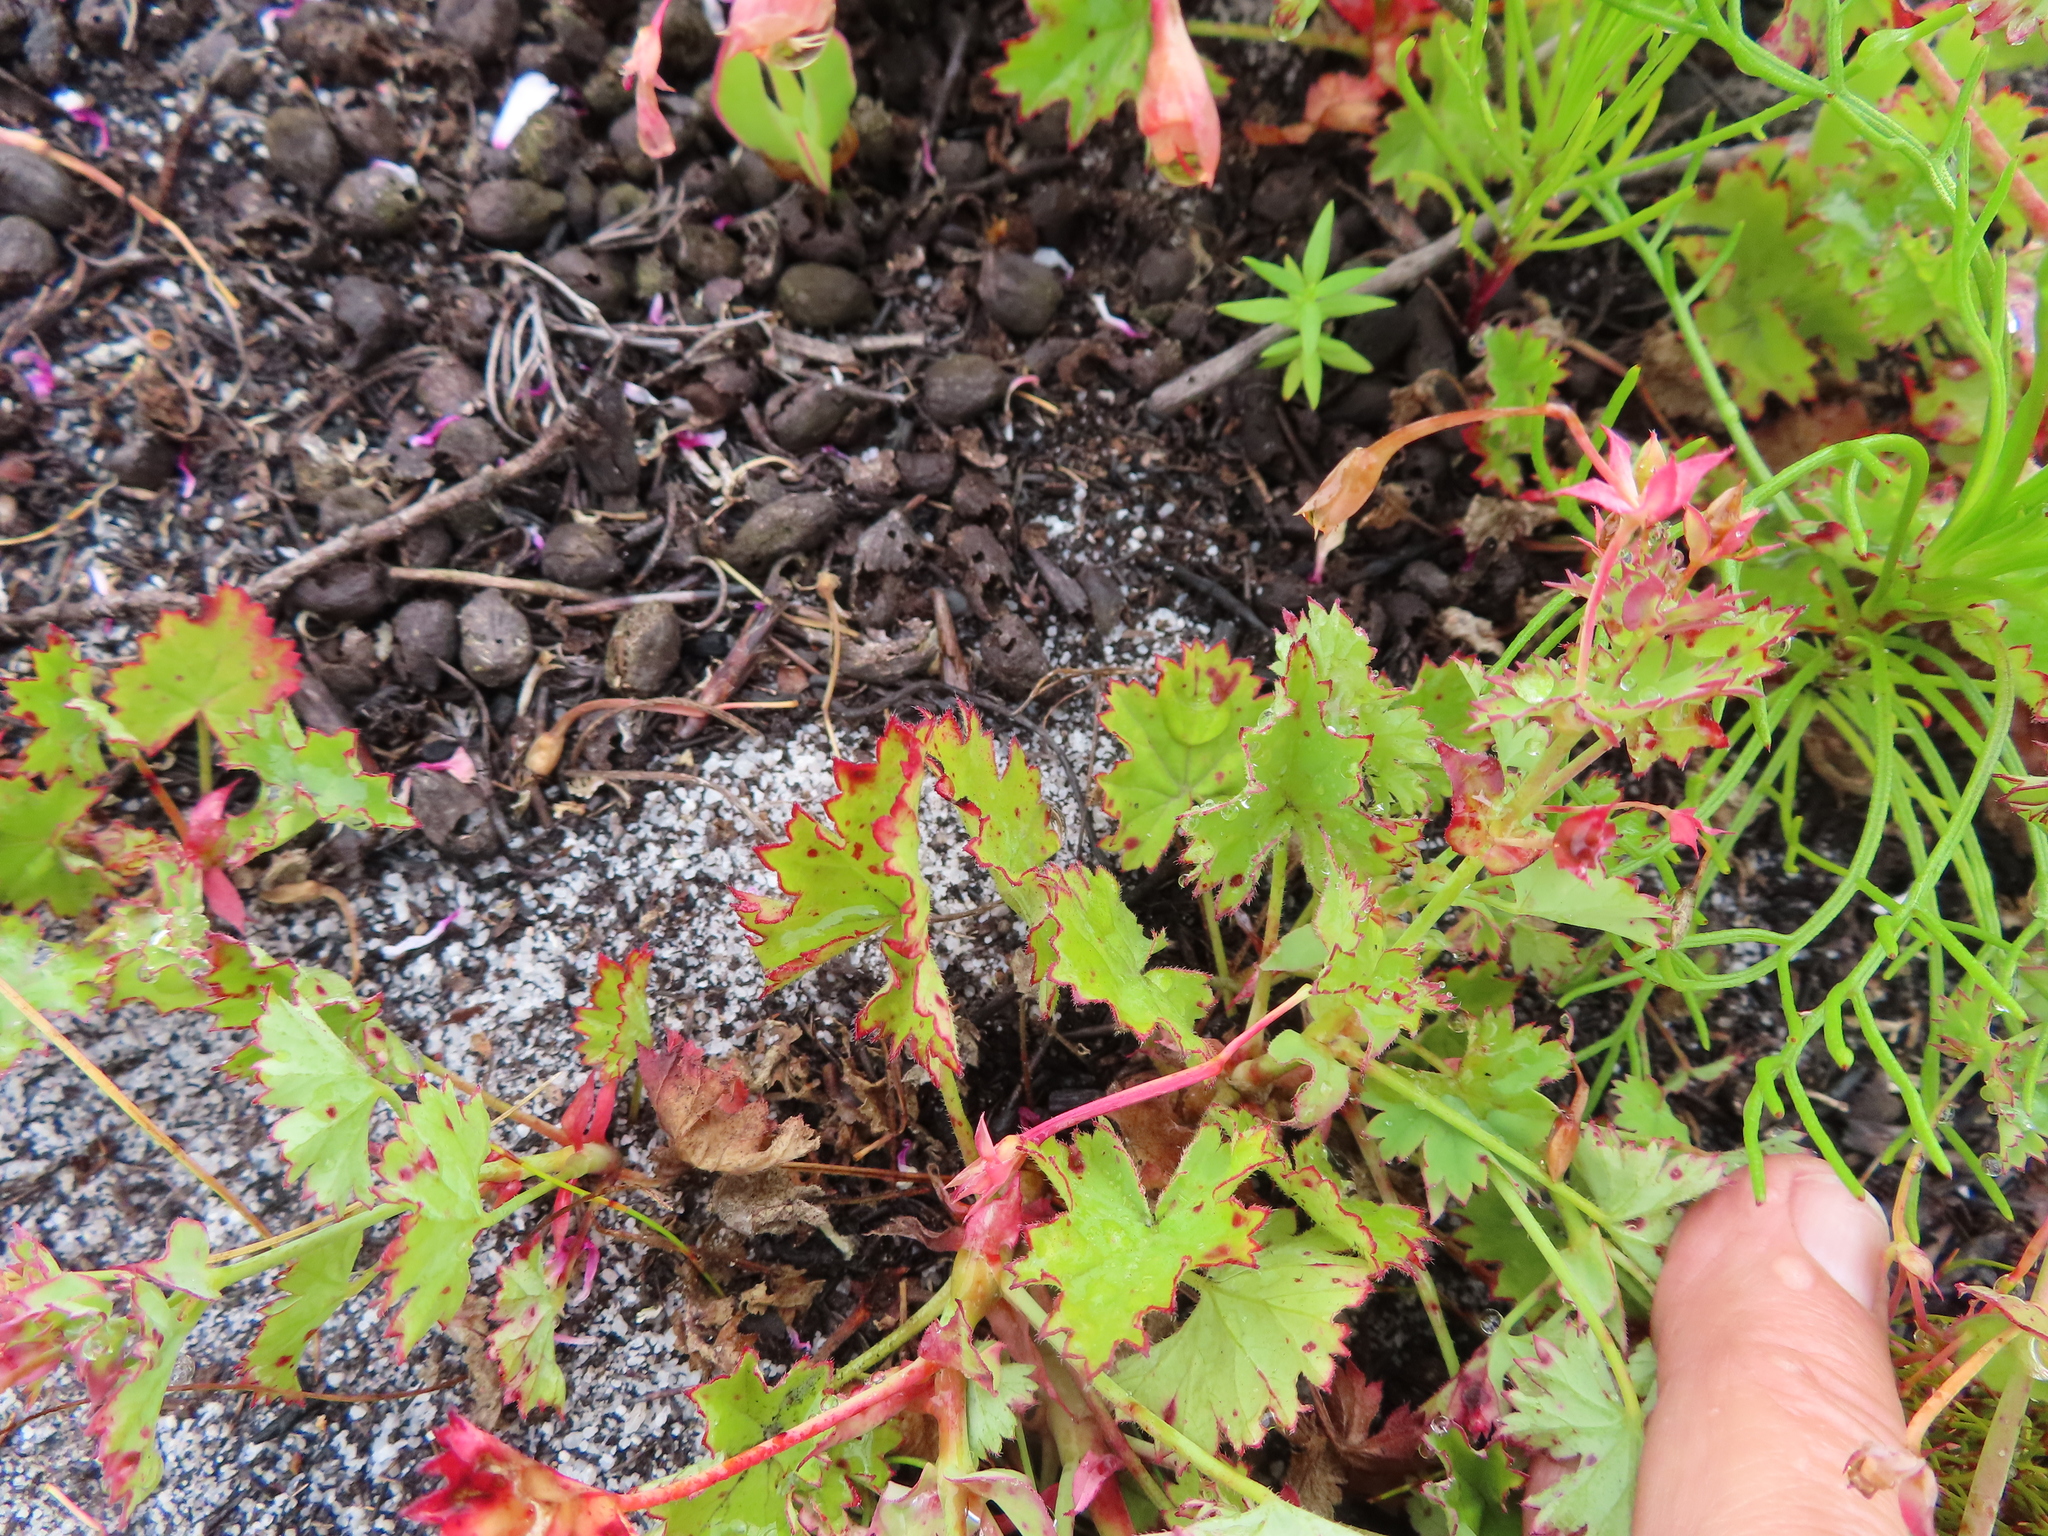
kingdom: Plantae
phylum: Tracheophyta
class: Magnoliopsida
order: Geraniales
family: Geraniaceae
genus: Pelargonium
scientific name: Pelargonium patulum
